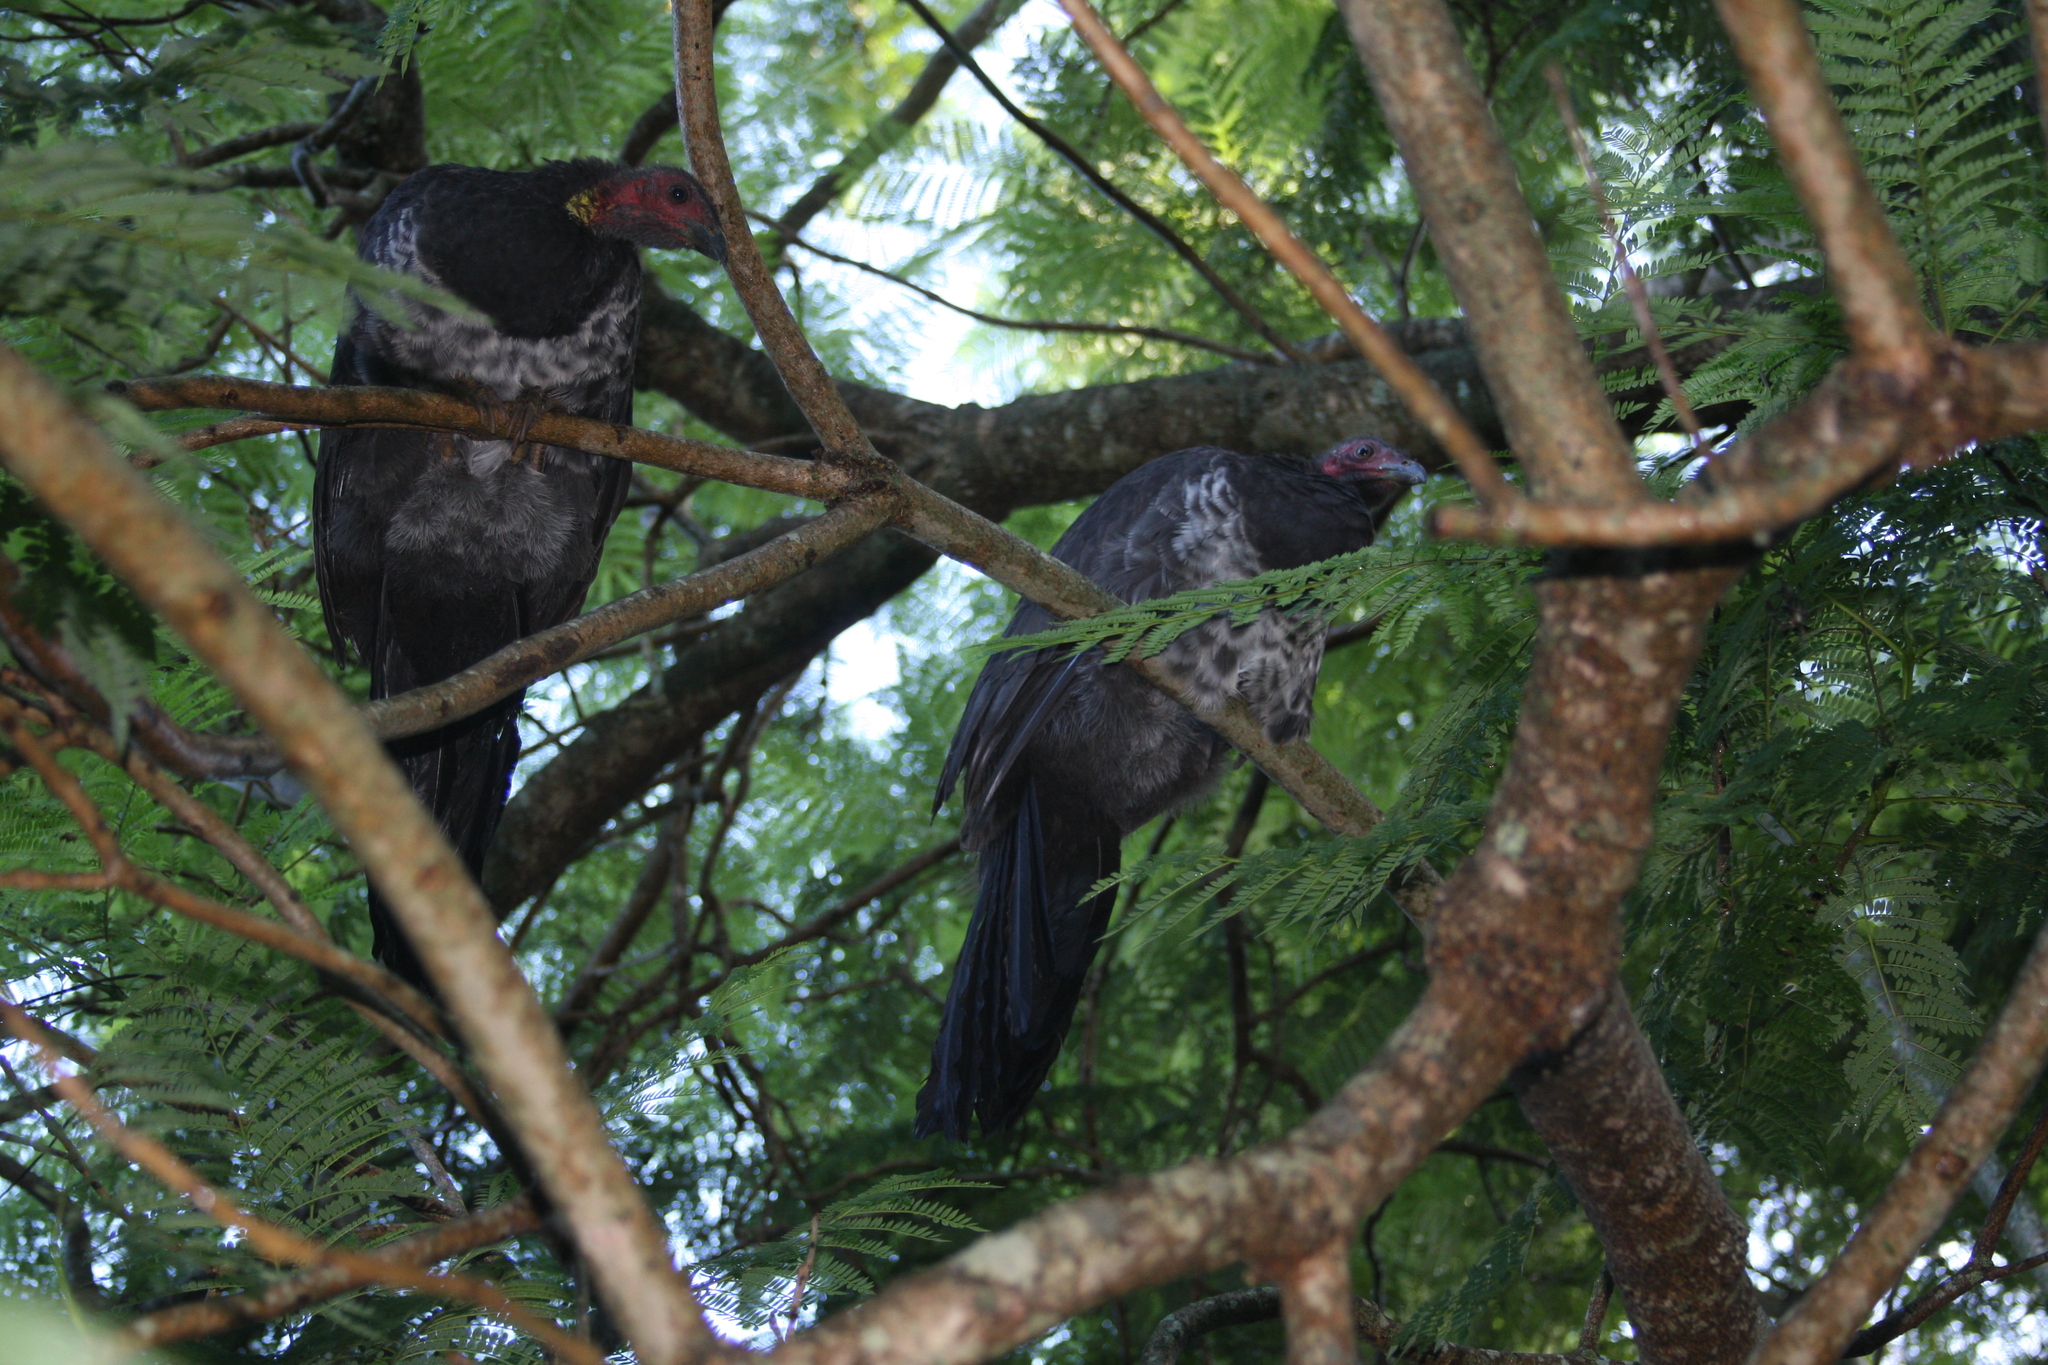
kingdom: Animalia
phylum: Chordata
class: Aves
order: Galliformes
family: Megapodiidae
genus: Alectura
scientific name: Alectura lathami
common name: Australian brushturkey
